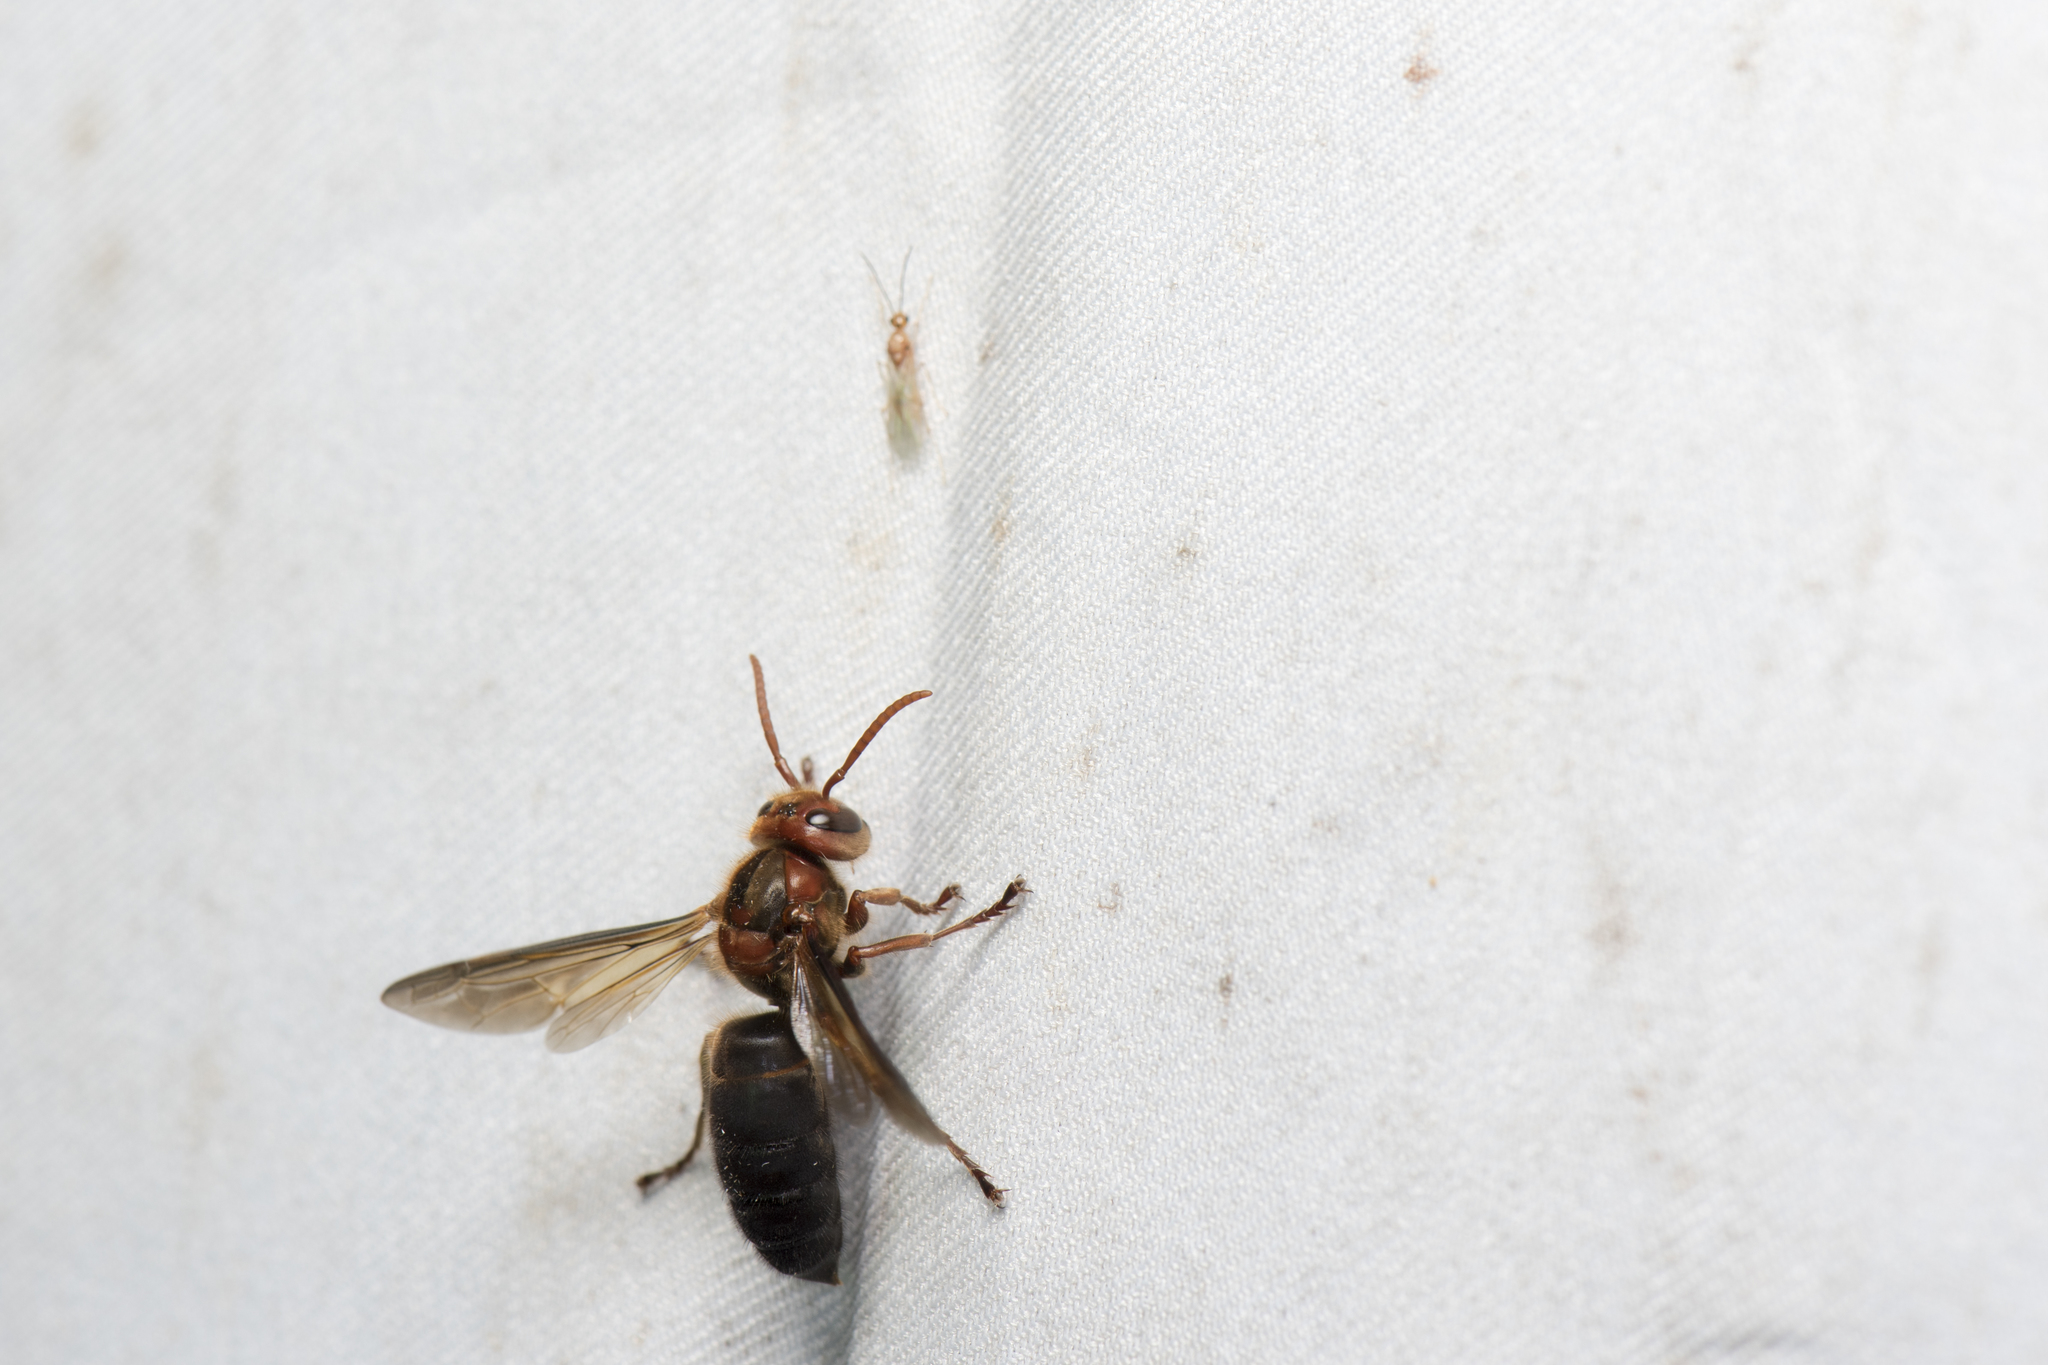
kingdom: Animalia
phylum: Arthropoda
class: Insecta
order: Hymenoptera
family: Vespidae
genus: Vespa
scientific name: Vespa basalis
